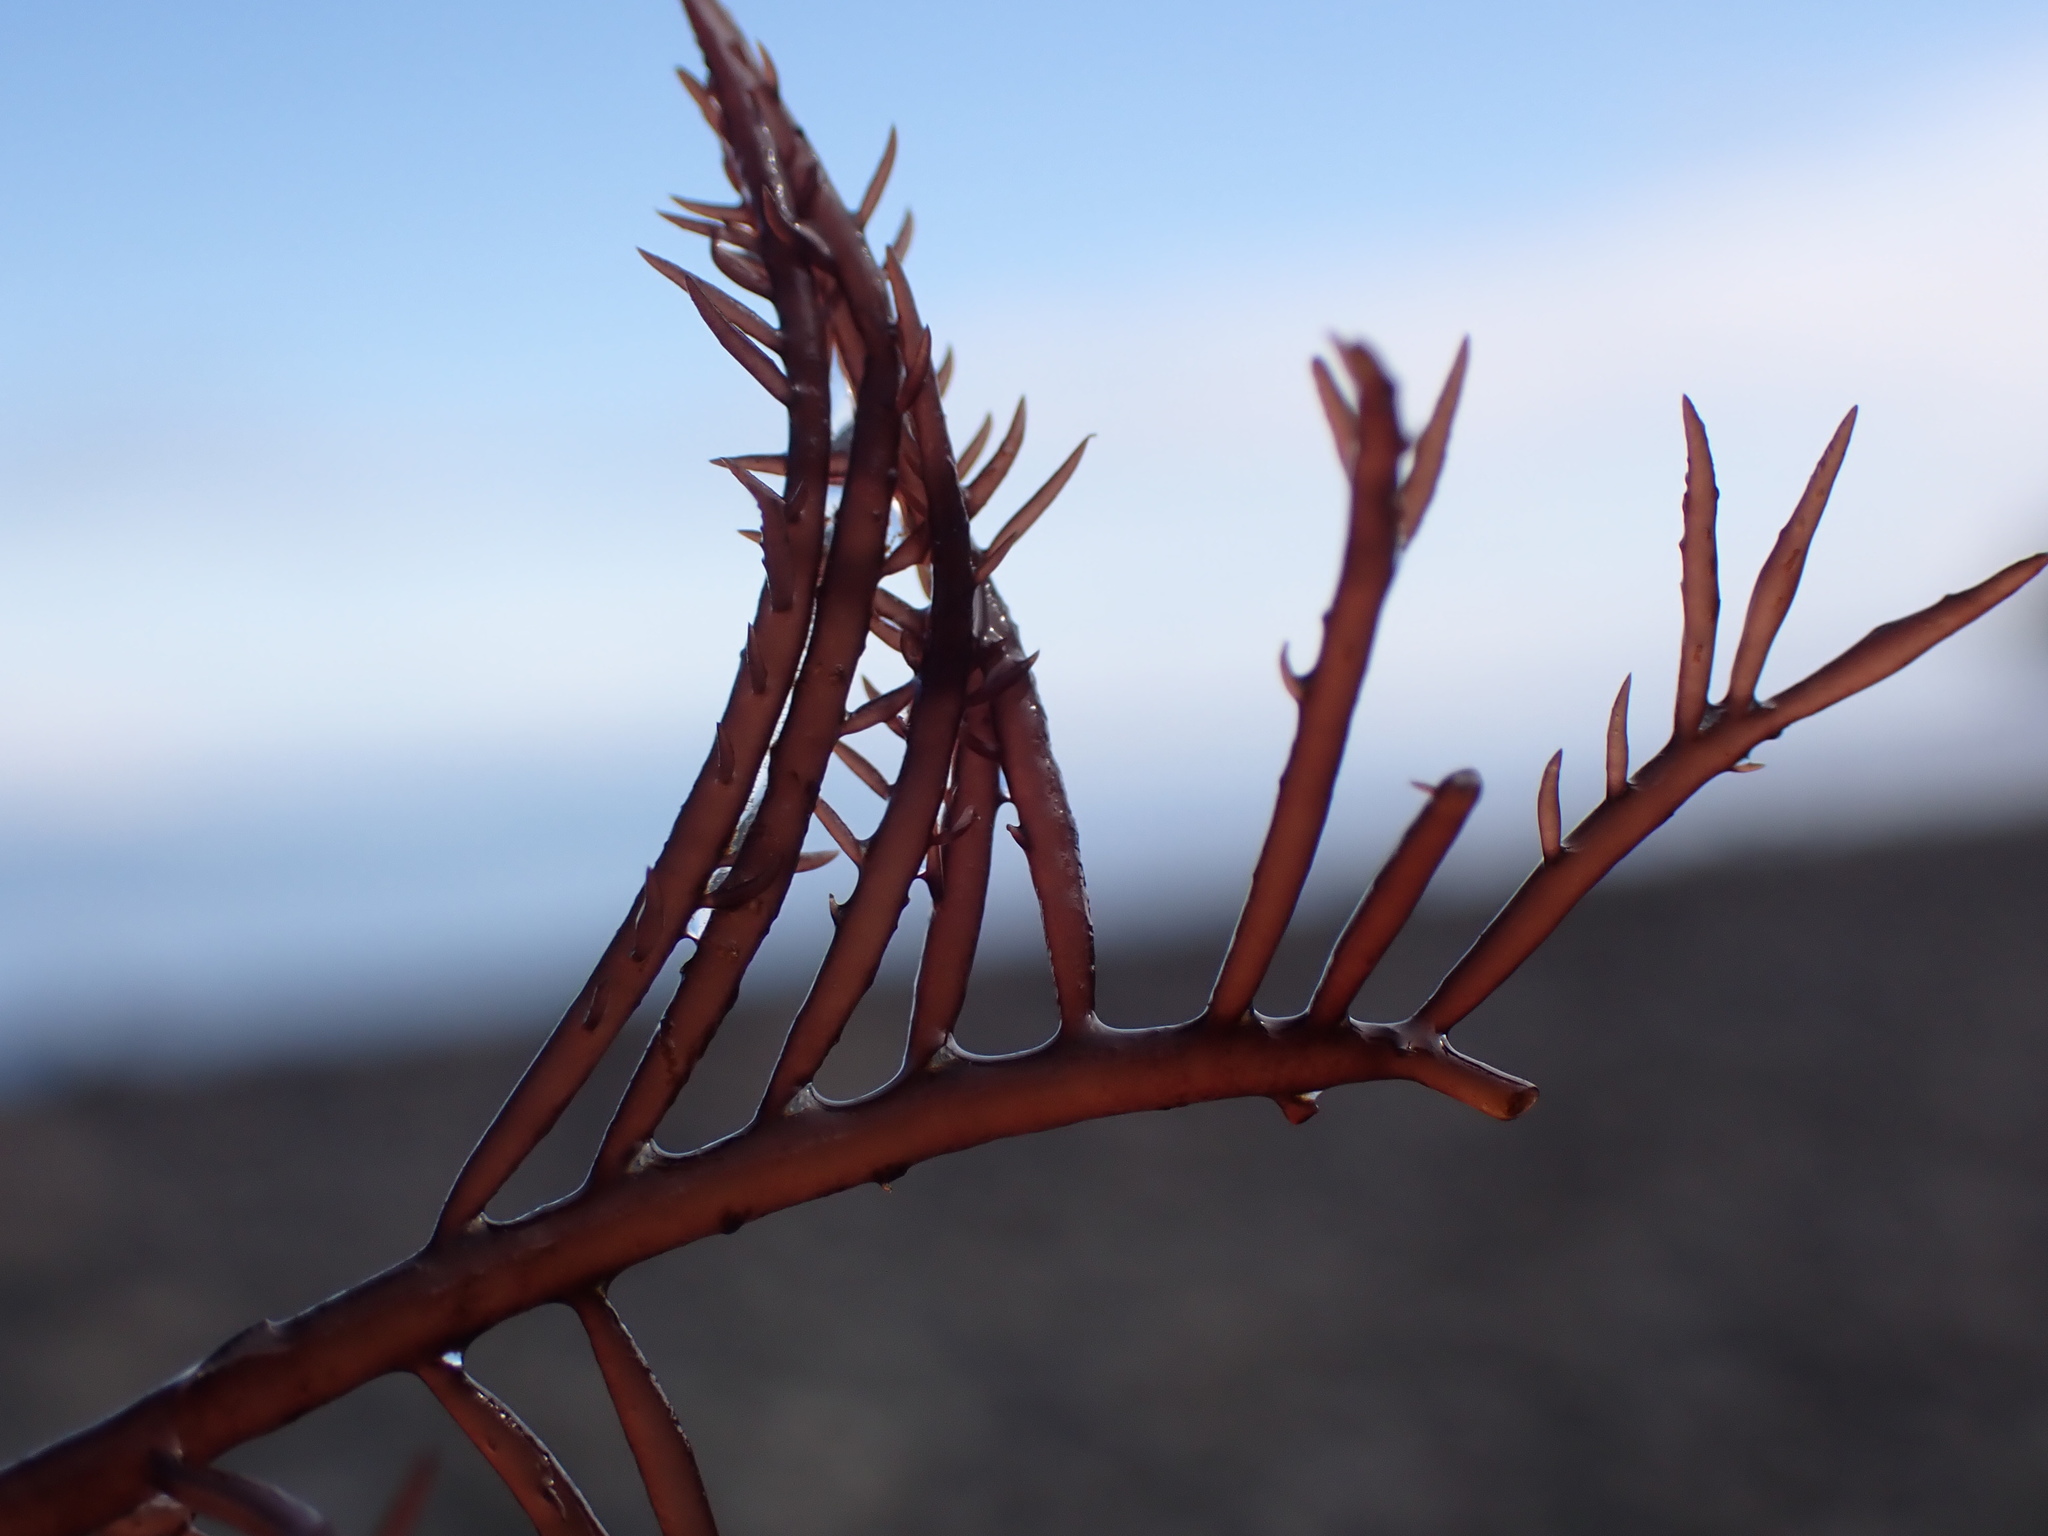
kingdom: Plantae
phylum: Rhodophyta
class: Florideophyceae
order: Gigartinales
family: Dumontiaceae
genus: Cryptosiphonia
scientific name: Cryptosiphonia woodii
